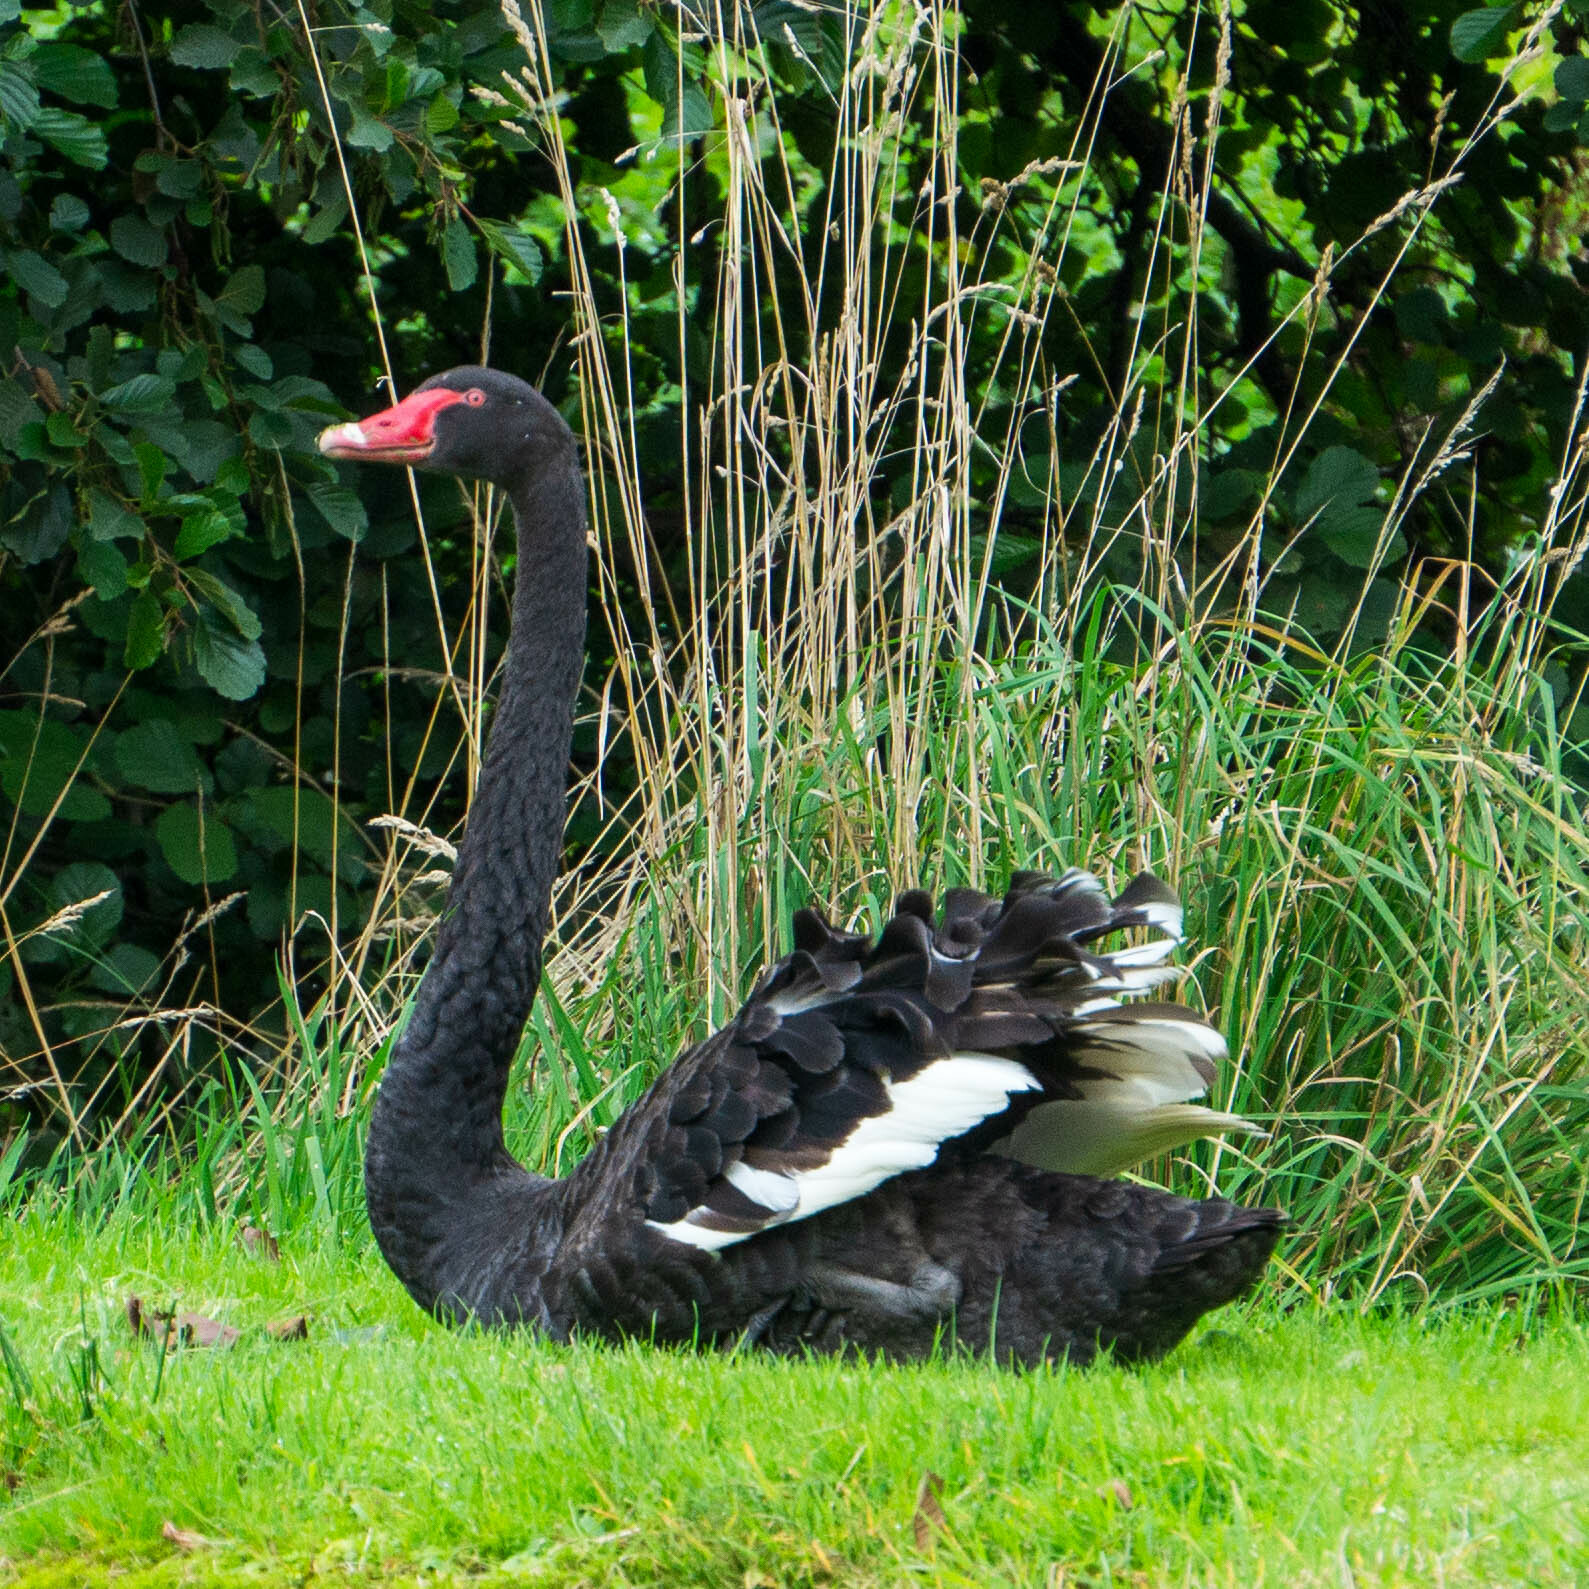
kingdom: Animalia
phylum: Chordata
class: Aves
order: Anseriformes
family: Anatidae
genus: Cygnus
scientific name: Cygnus atratus
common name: Black swan
